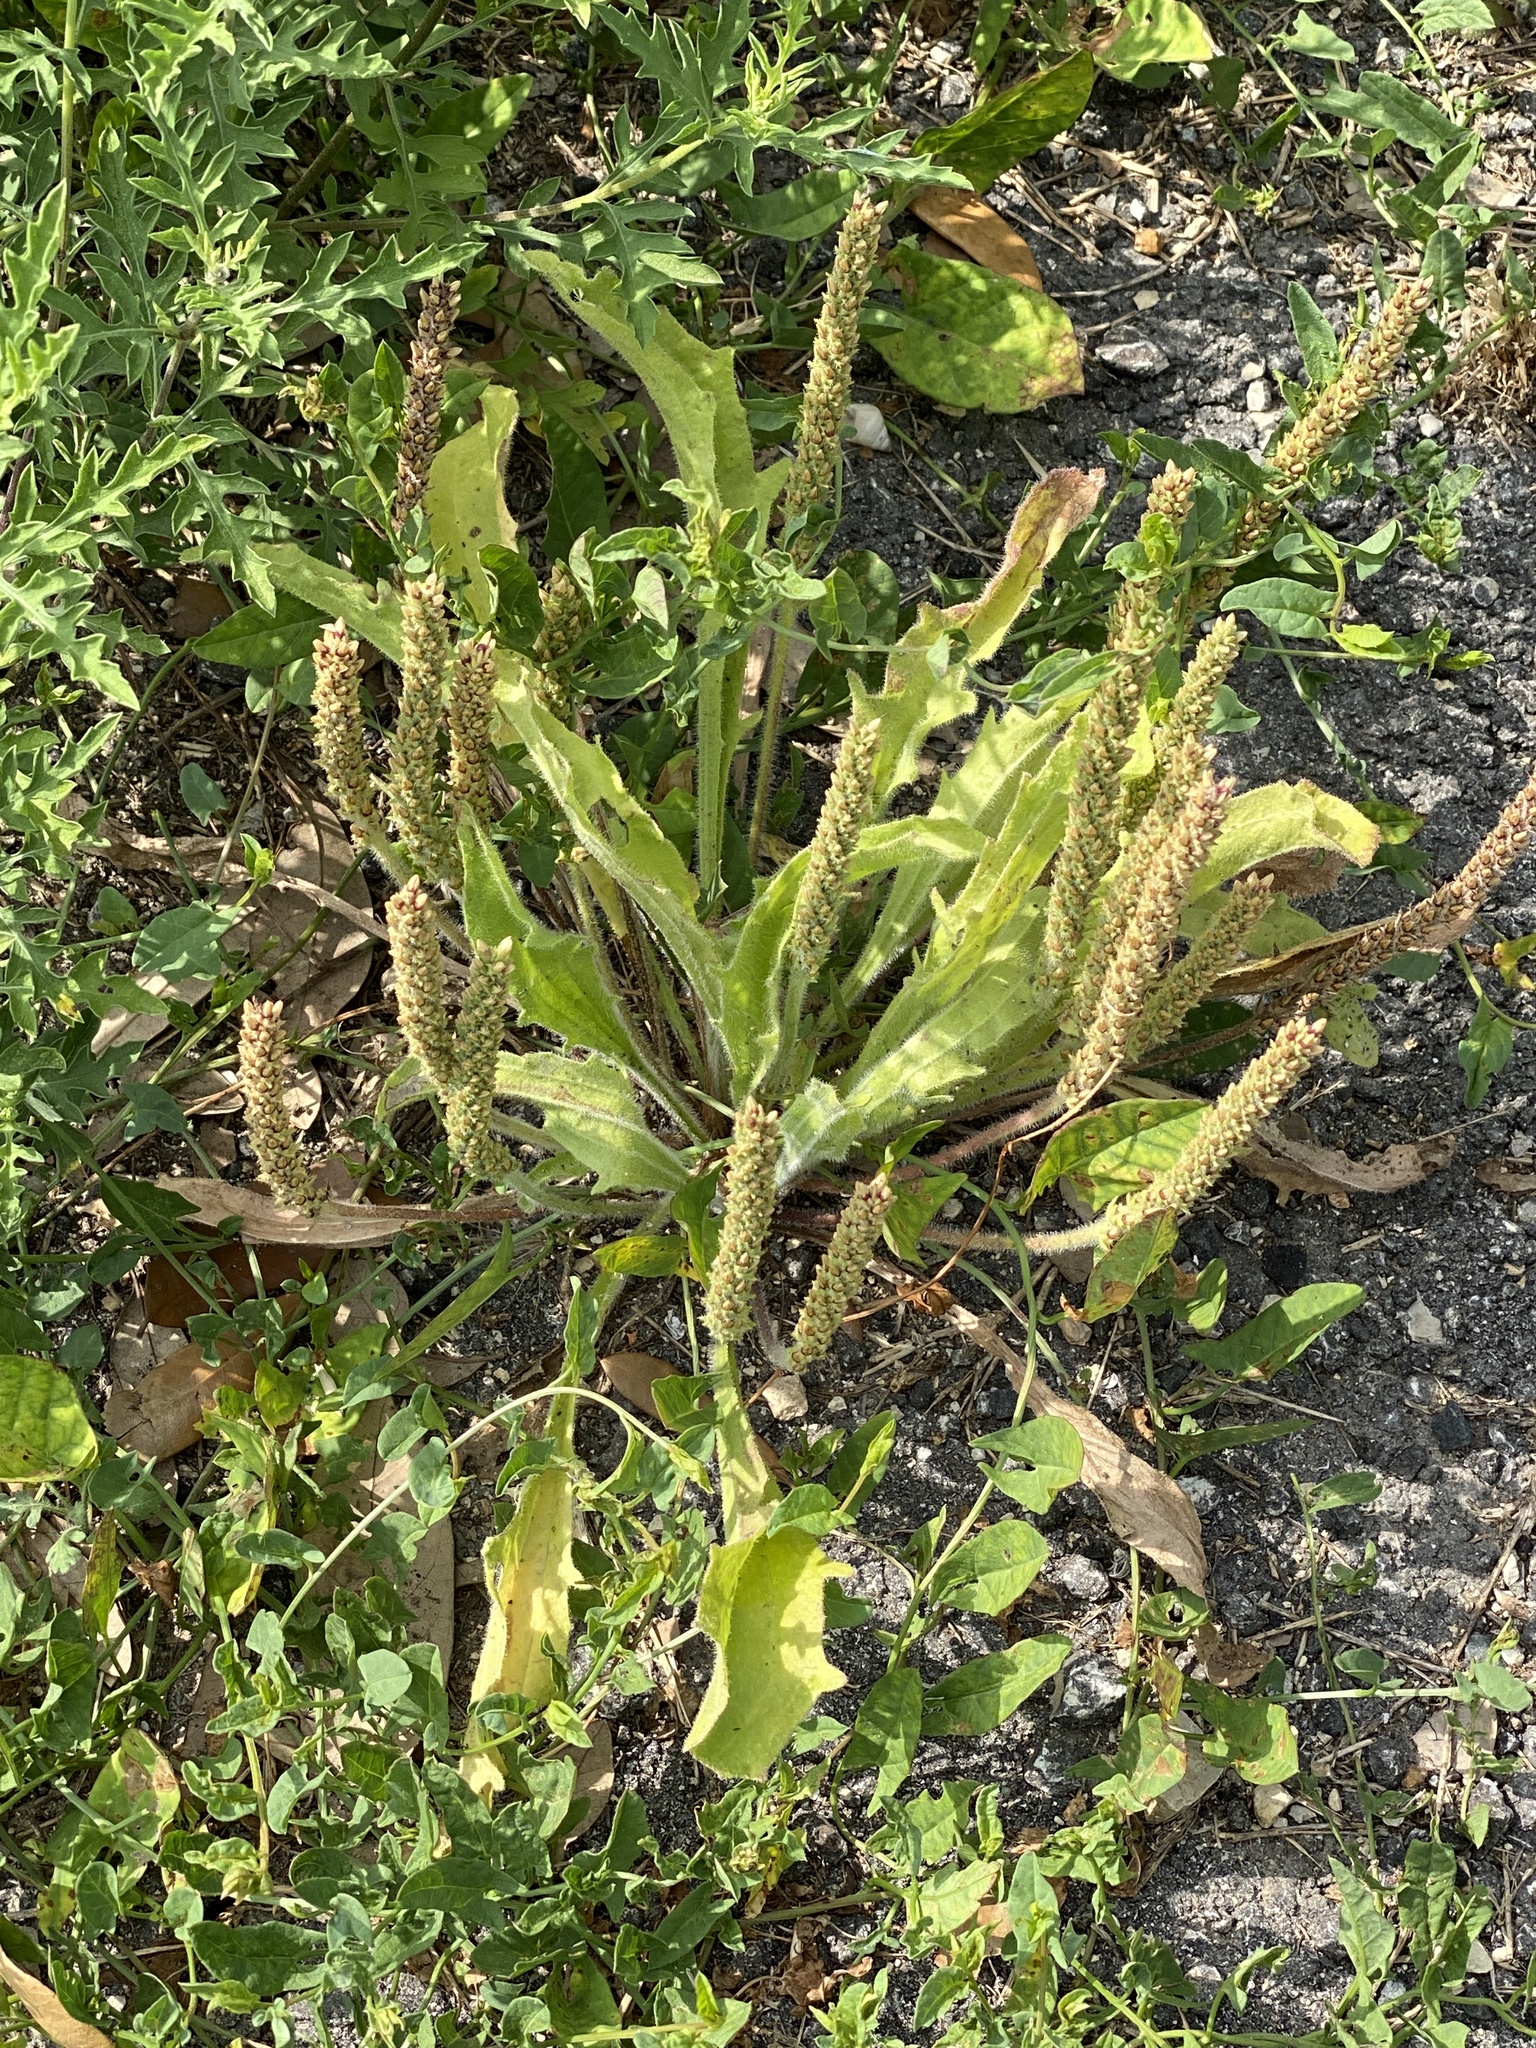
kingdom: Plantae
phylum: Tracheophyta
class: Magnoliopsida
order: Lamiales
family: Plantaginaceae
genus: Plantago
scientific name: Plantago rhodosperma
